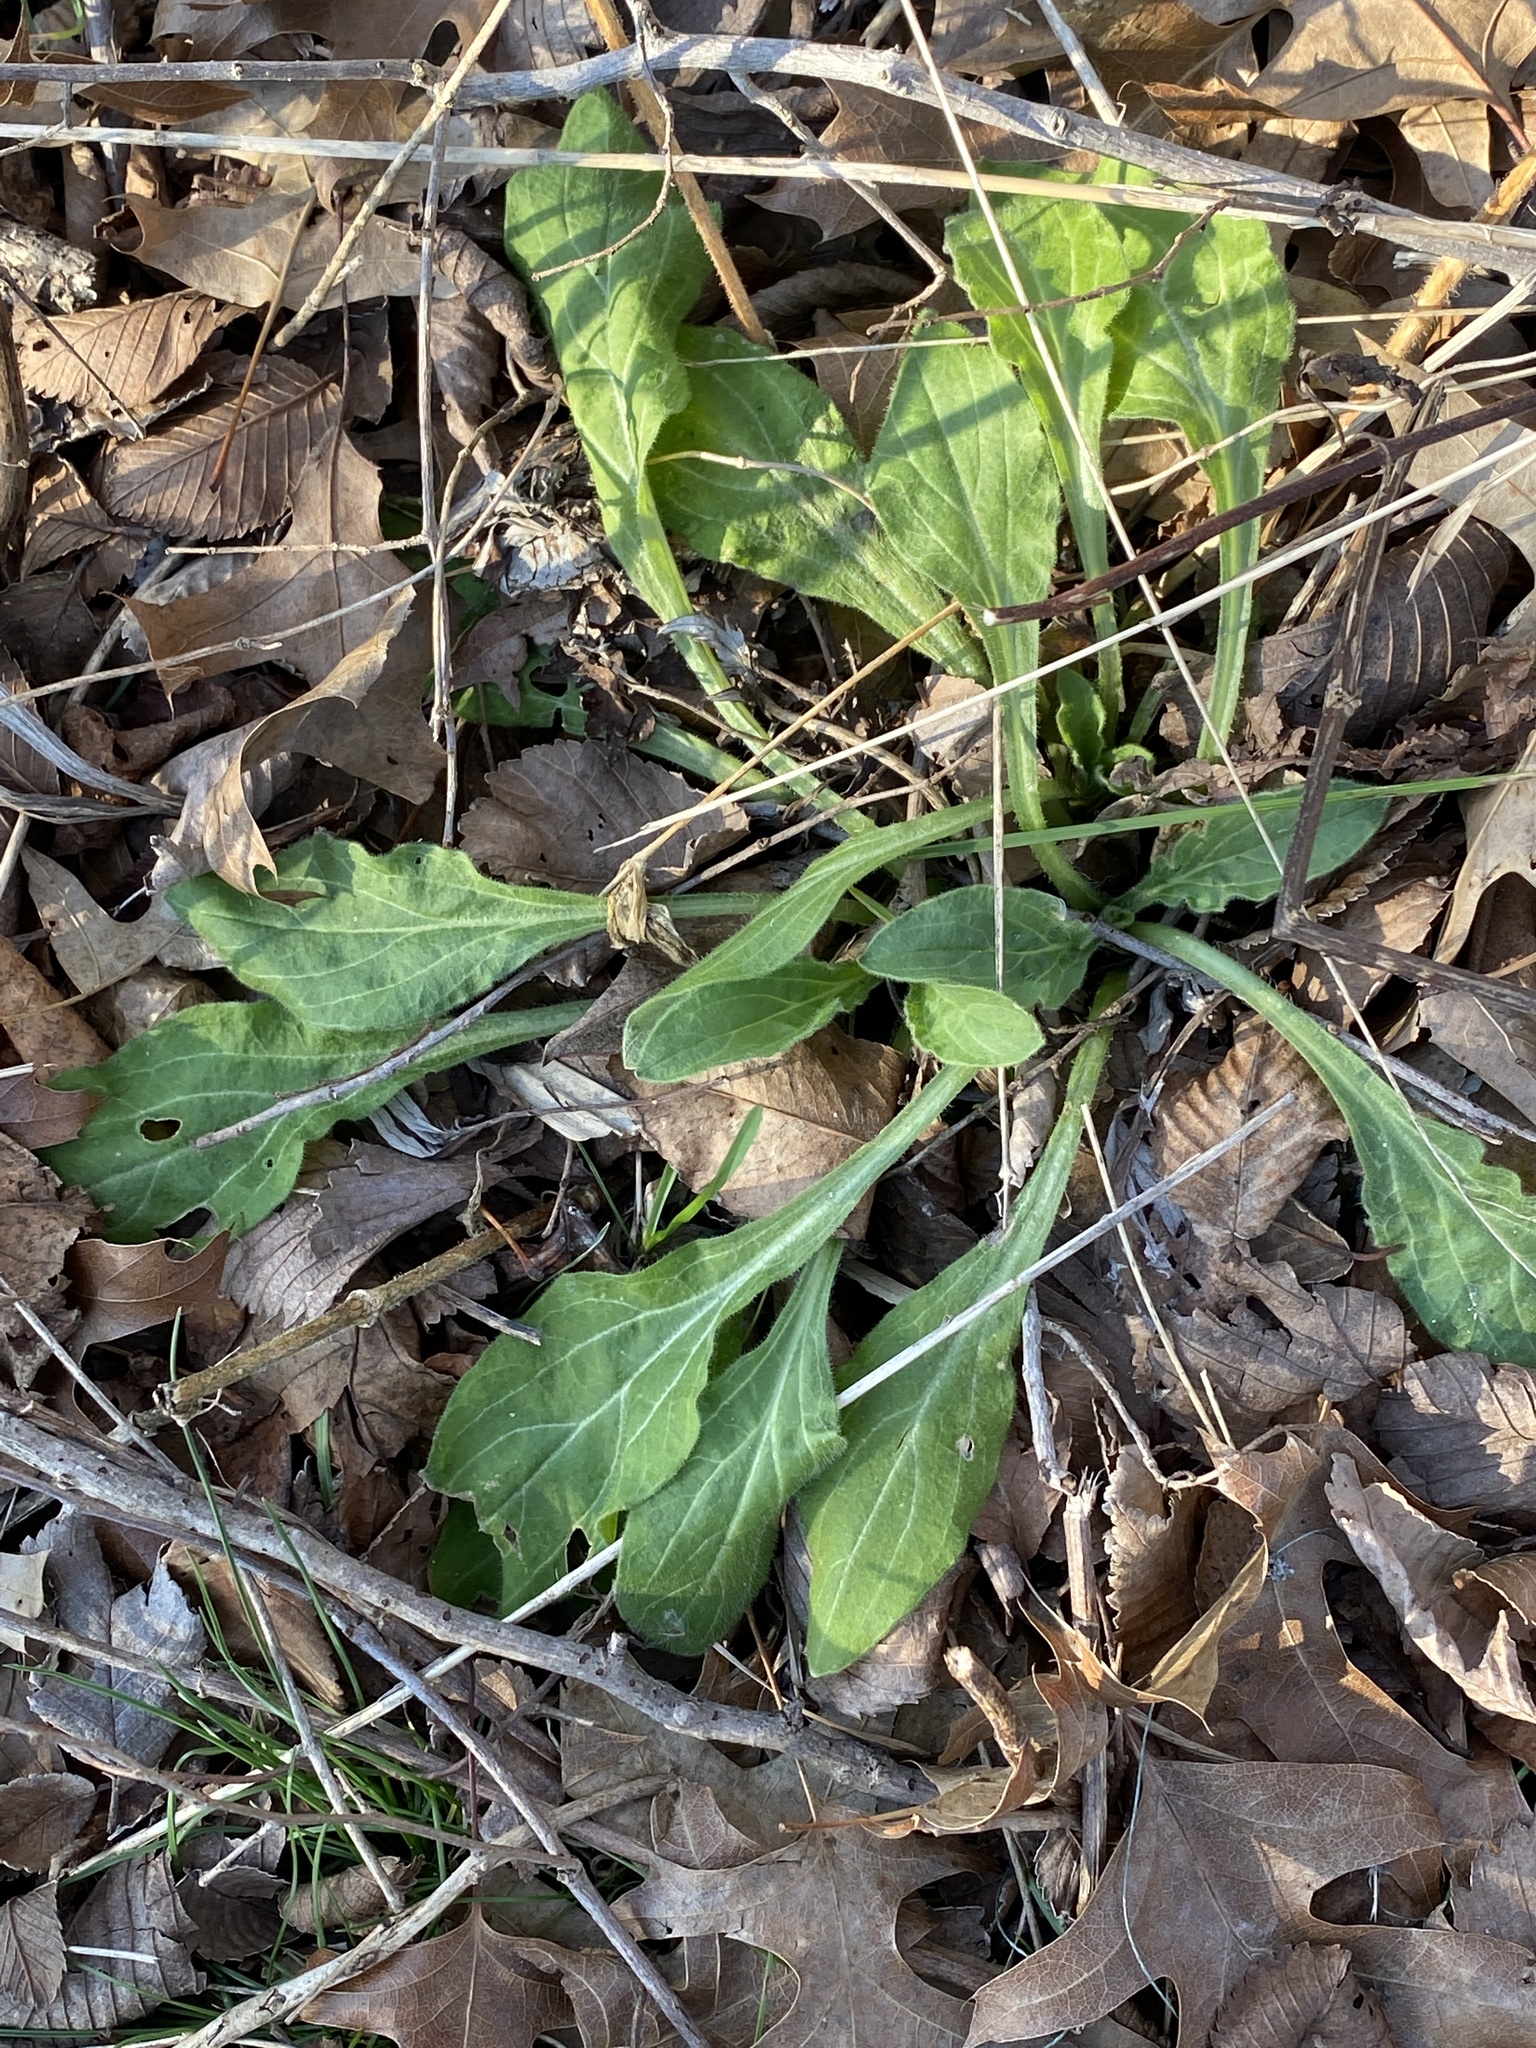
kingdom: Plantae
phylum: Tracheophyta
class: Magnoliopsida
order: Caryophyllales
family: Caryophyllaceae
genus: Silene
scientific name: Silene latifolia
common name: White campion
